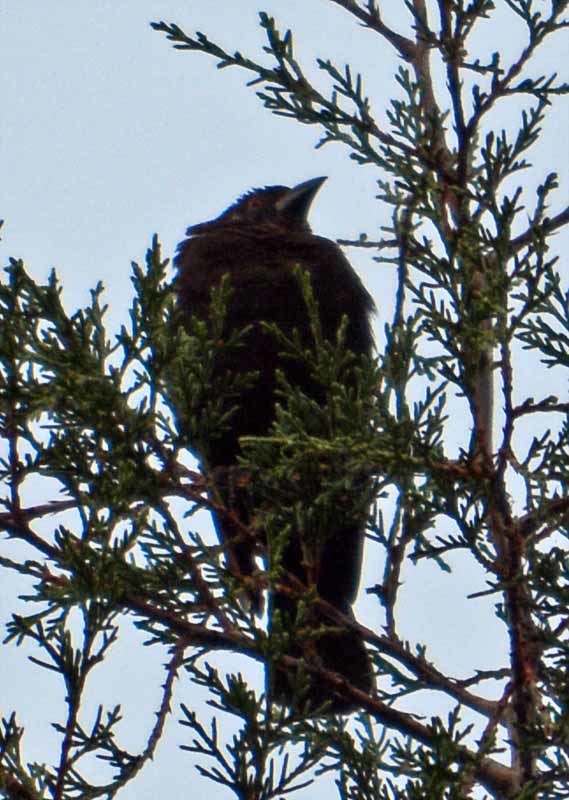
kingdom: Animalia
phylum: Chordata
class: Aves
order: Passeriformes
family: Icteridae
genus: Molothrus
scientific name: Molothrus aeneus
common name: Bronzed cowbird
